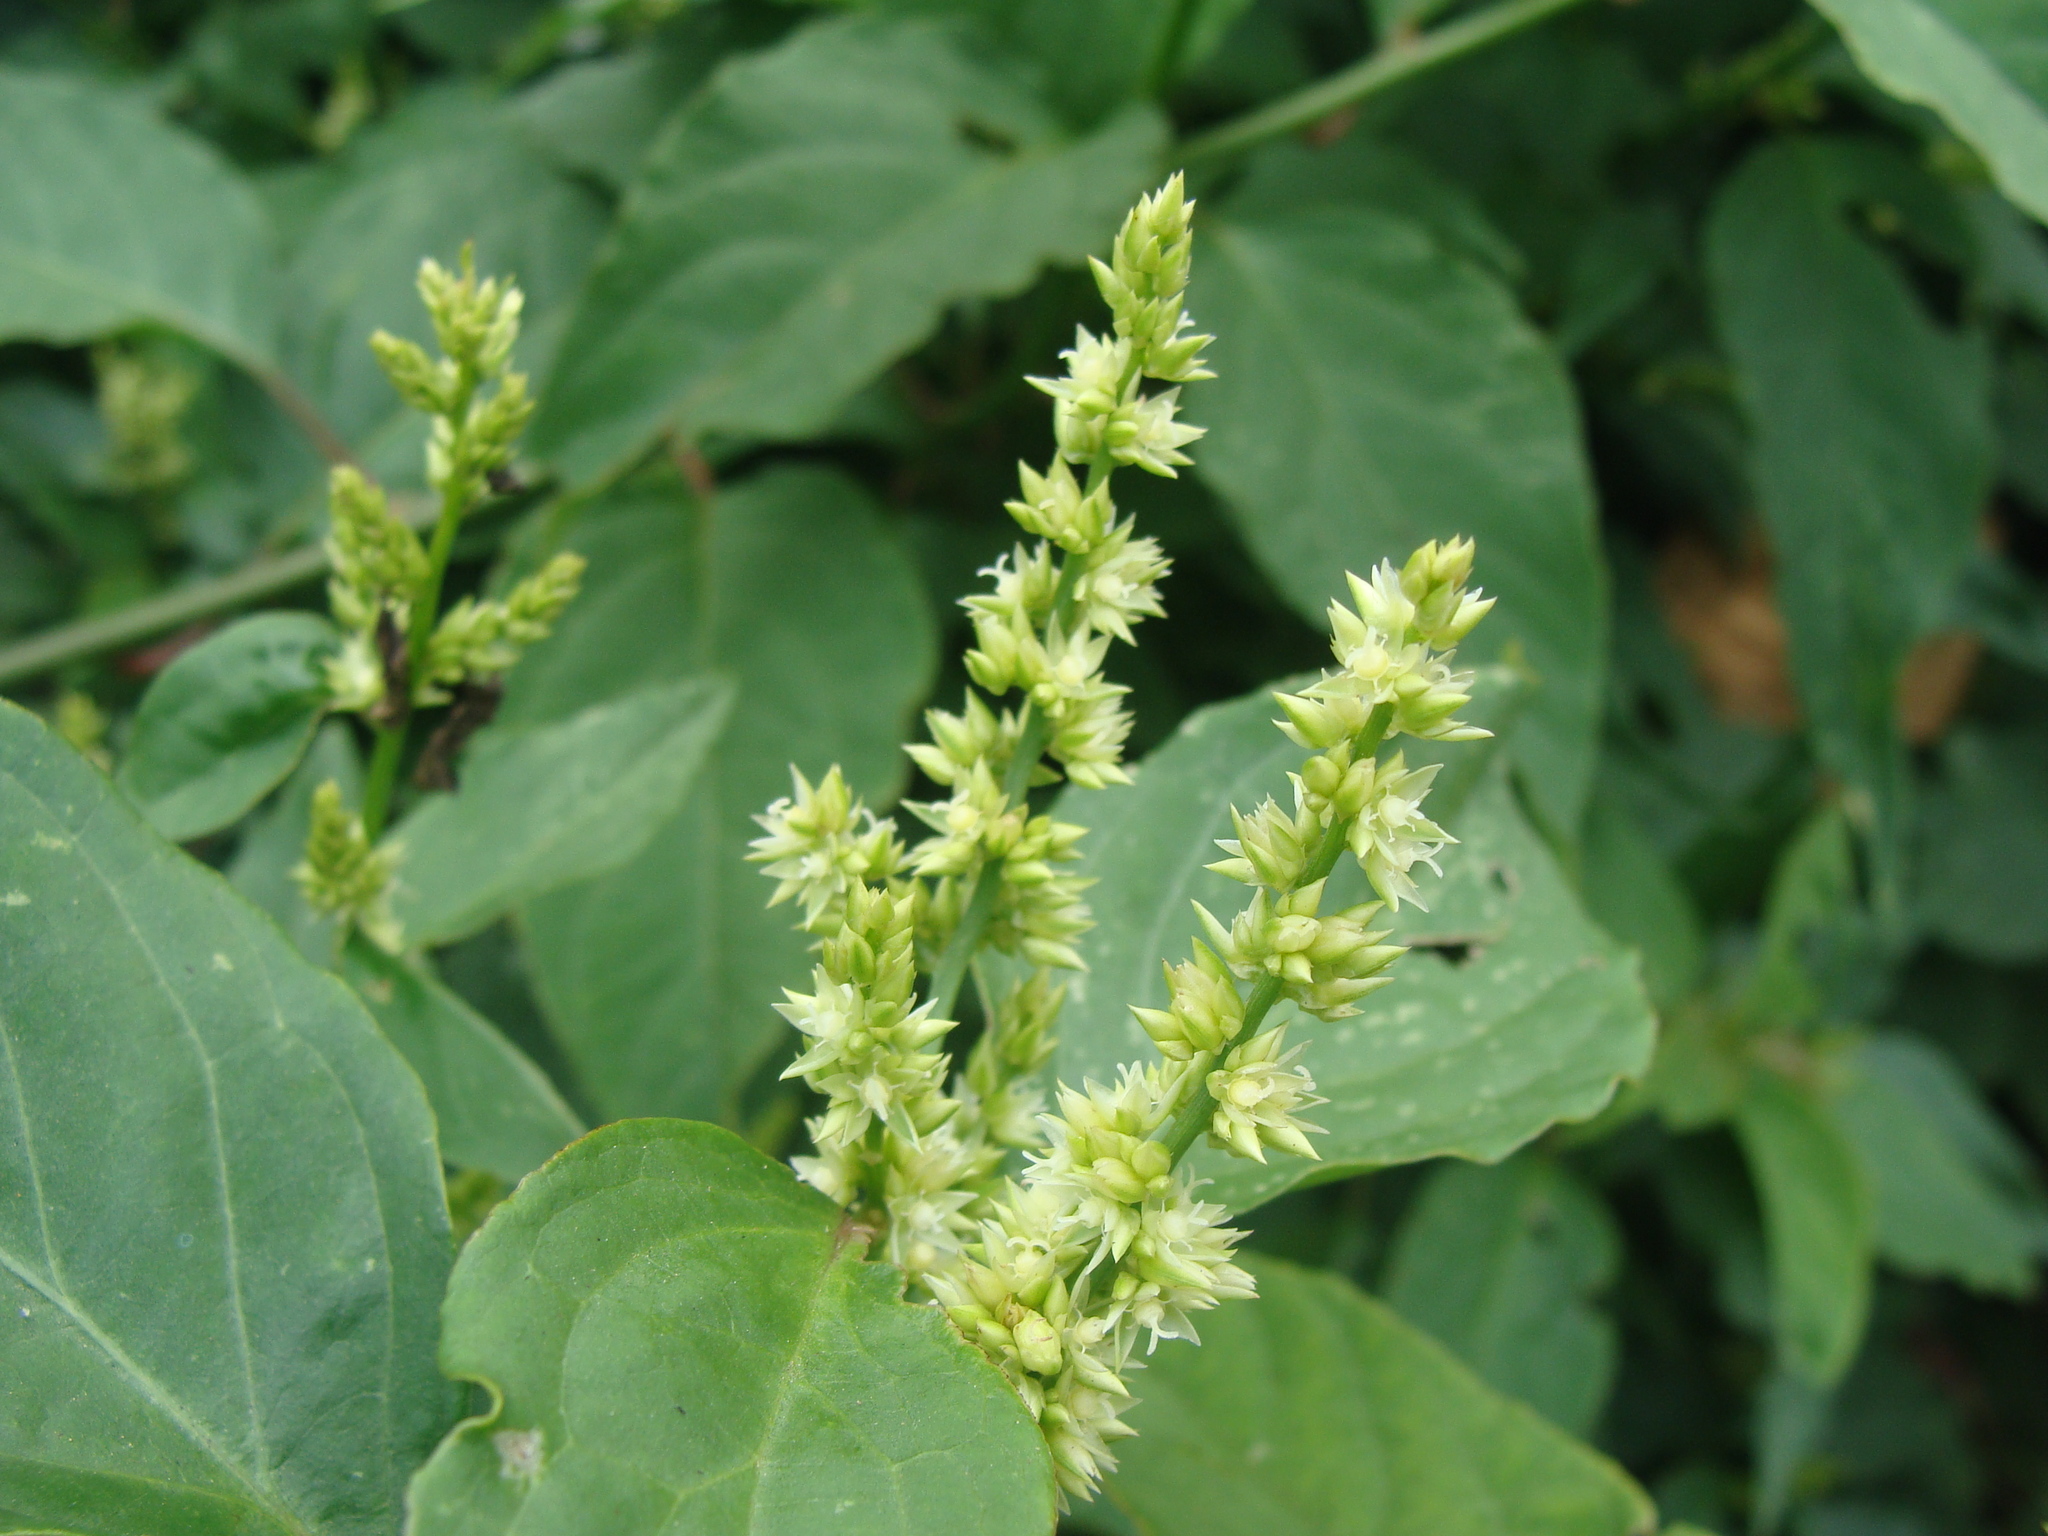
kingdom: Plantae
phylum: Tracheophyta
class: Magnoliopsida
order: Caryophyllales
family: Amaranthaceae
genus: Chamissoa
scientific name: Chamissoa altissima
